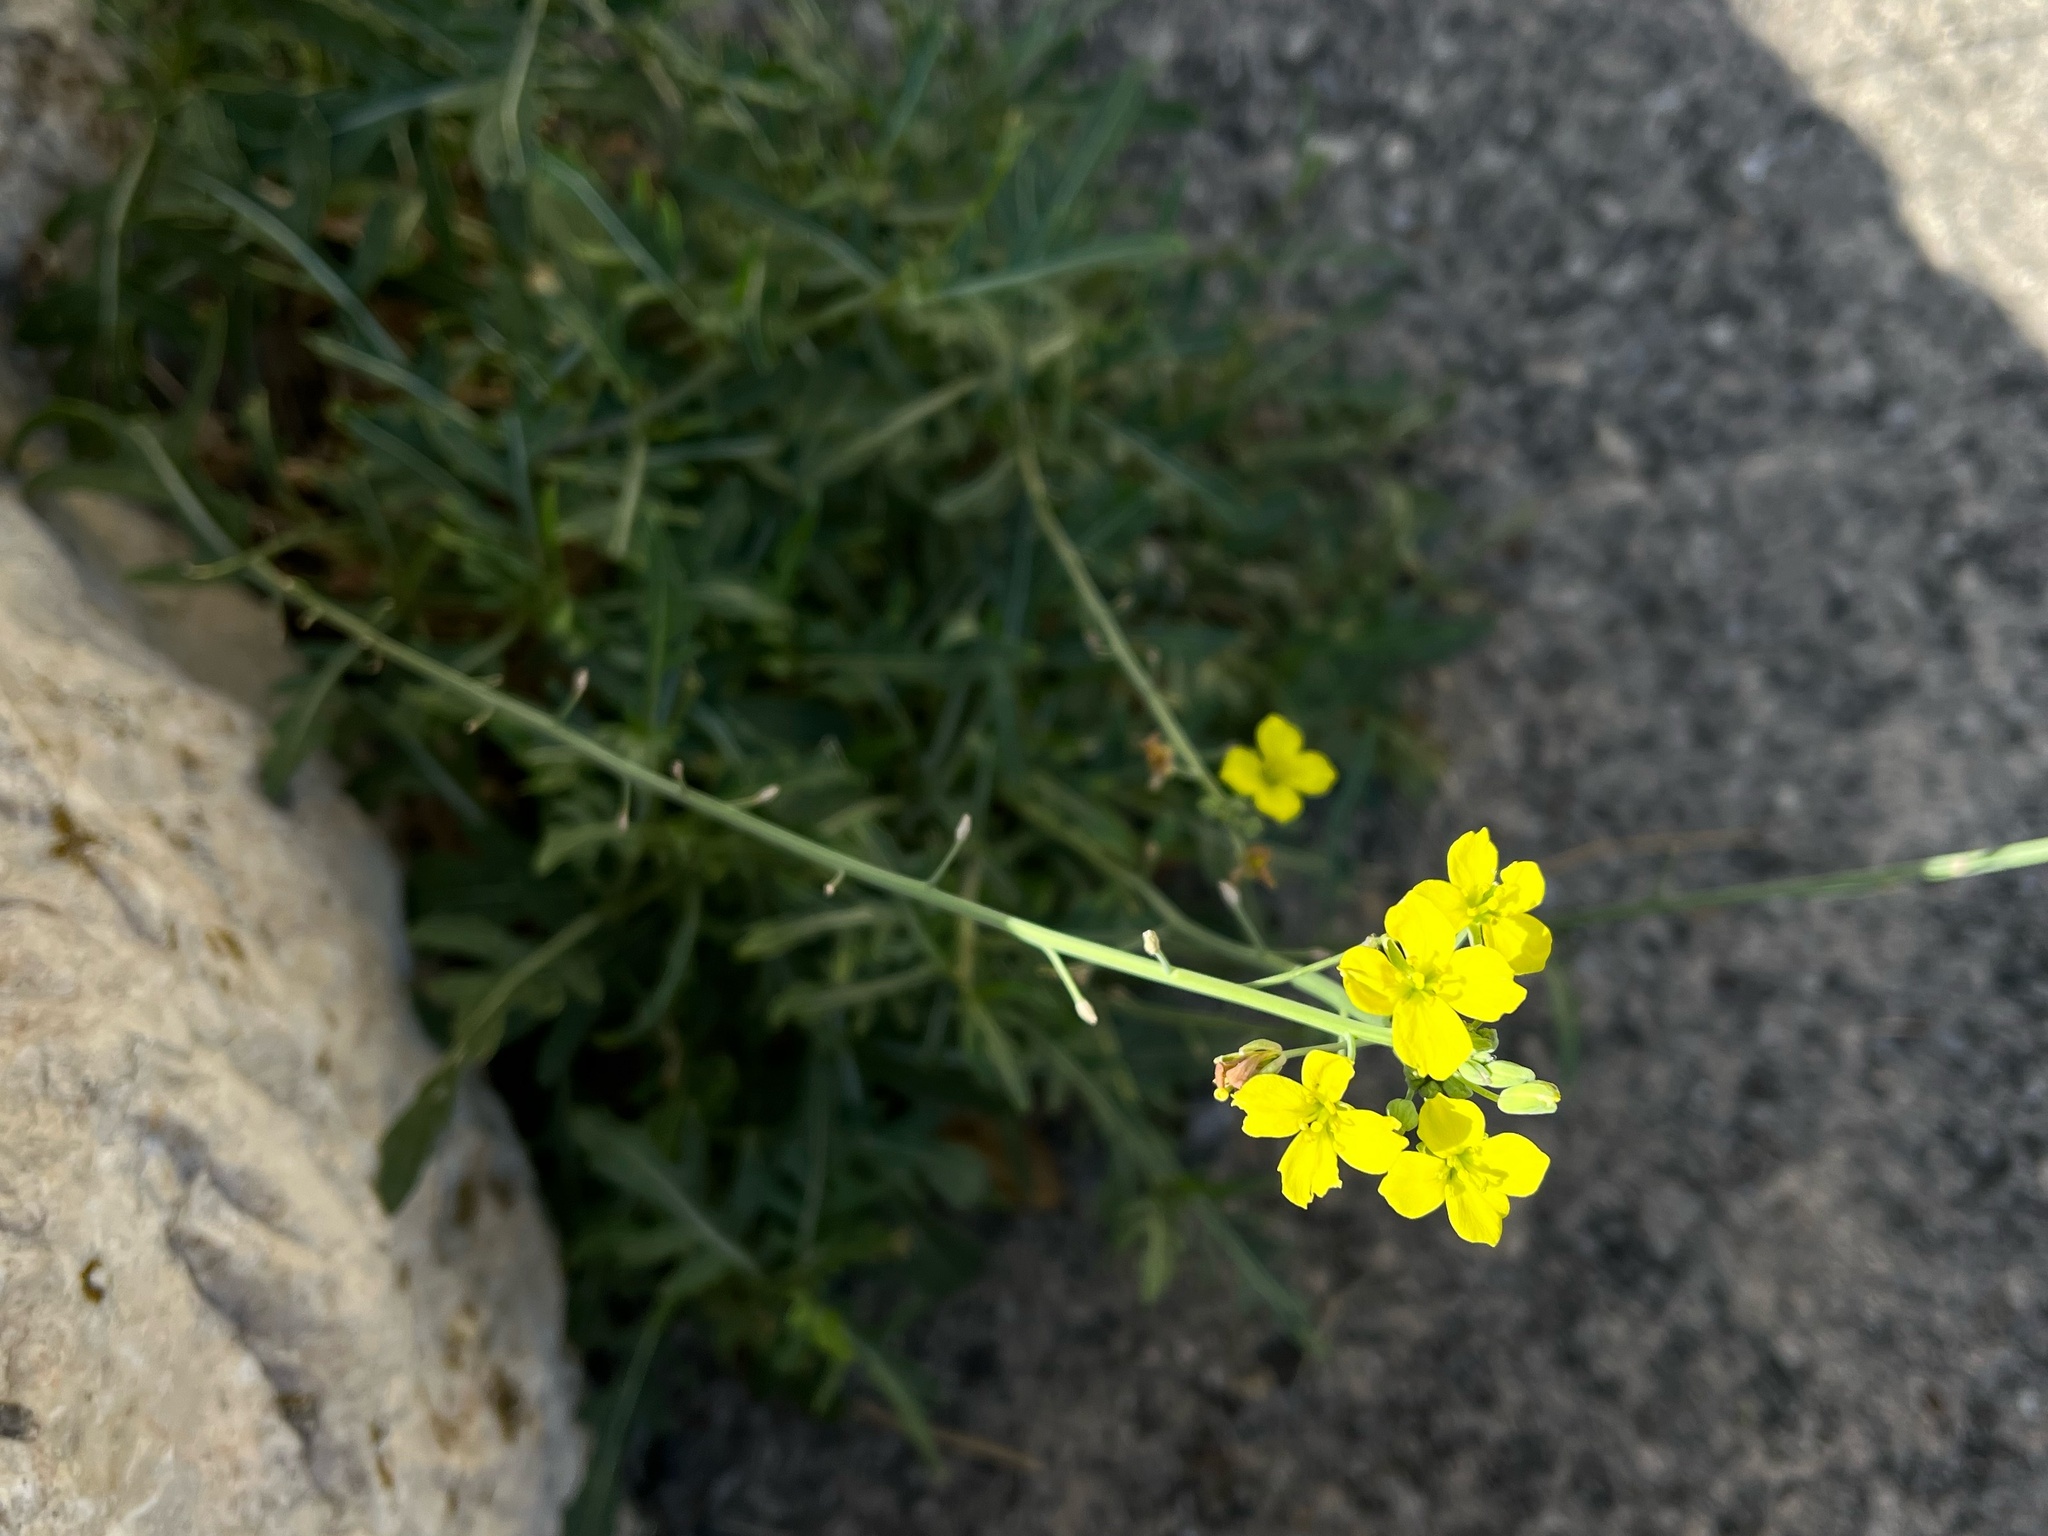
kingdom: Plantae
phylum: Tracheophyta
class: Magnoliopsida
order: Brassicales
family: Brassicaceae
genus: Diplotaxis
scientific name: Diplotaxis tenuifolia
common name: Perennial wall-rocket
